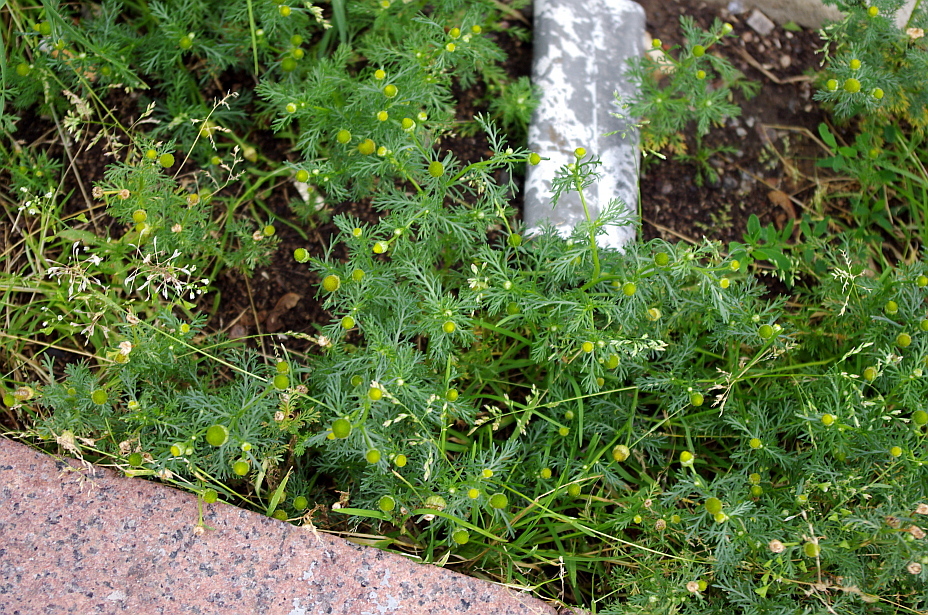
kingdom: Plantae
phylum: Tracheophyta
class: Magnoliopsida
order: Asterales
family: Asteraceae
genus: Matricaria
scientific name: Matricaria discoidea
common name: Disc mayweed
